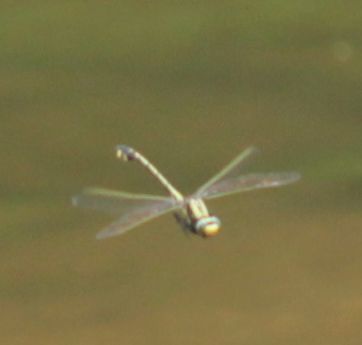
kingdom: Animalia
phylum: Arthropoda
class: Insecta
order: Odonata
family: Gomphidae
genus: Gomphurus
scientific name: Gomphurus fraternus
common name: Midland clubtail
